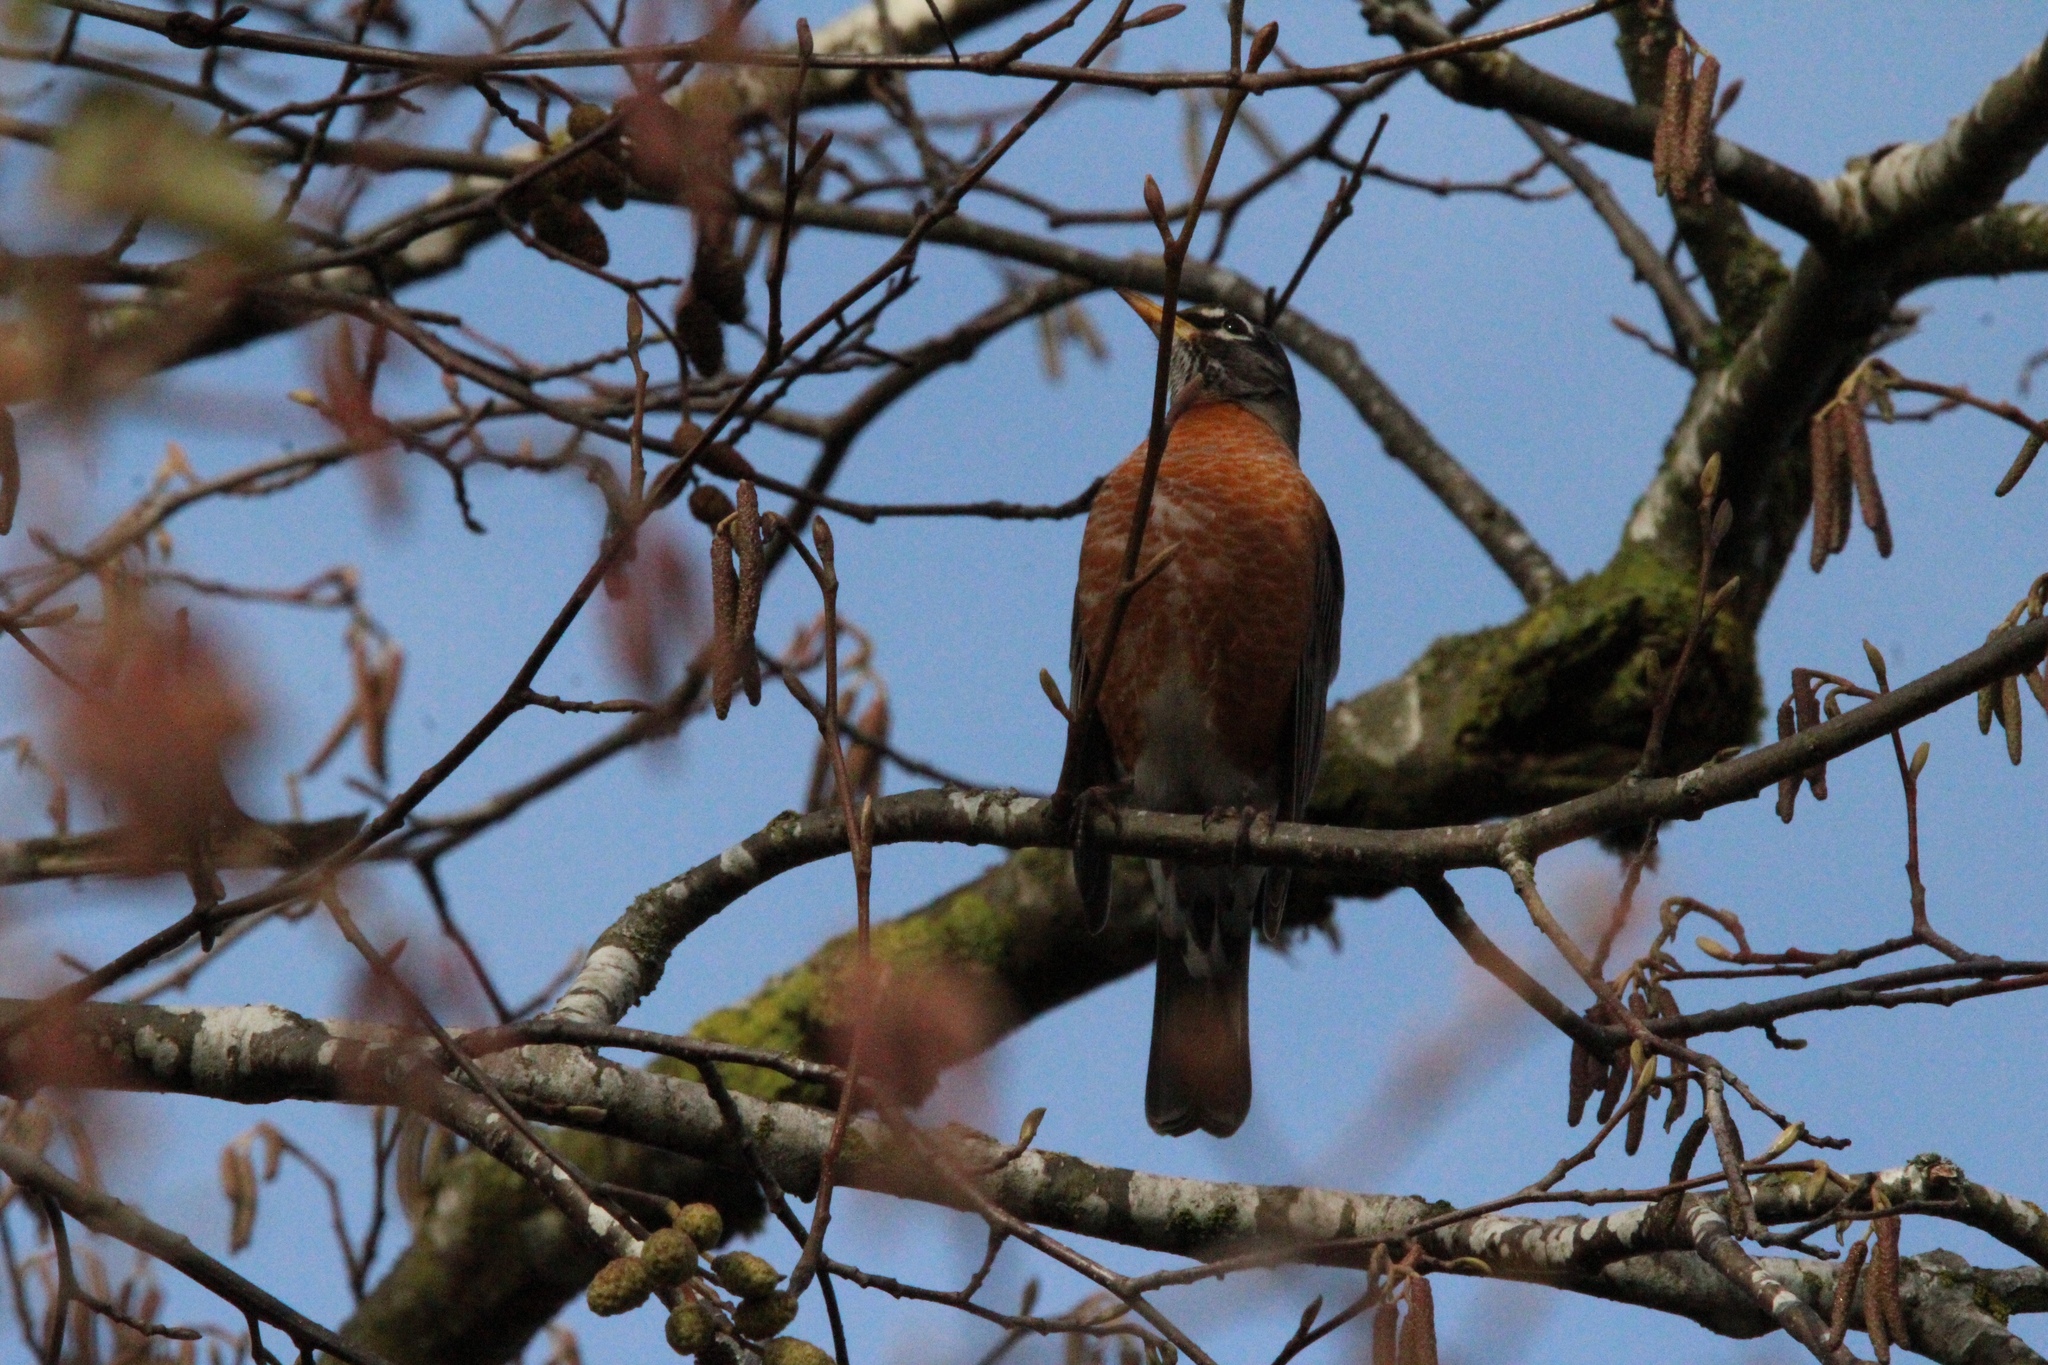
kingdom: Animalia
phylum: Chordata
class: Aves
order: Passeriformes
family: Turdidae
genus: Turdus
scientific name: Turdus migratorius
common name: American robin
